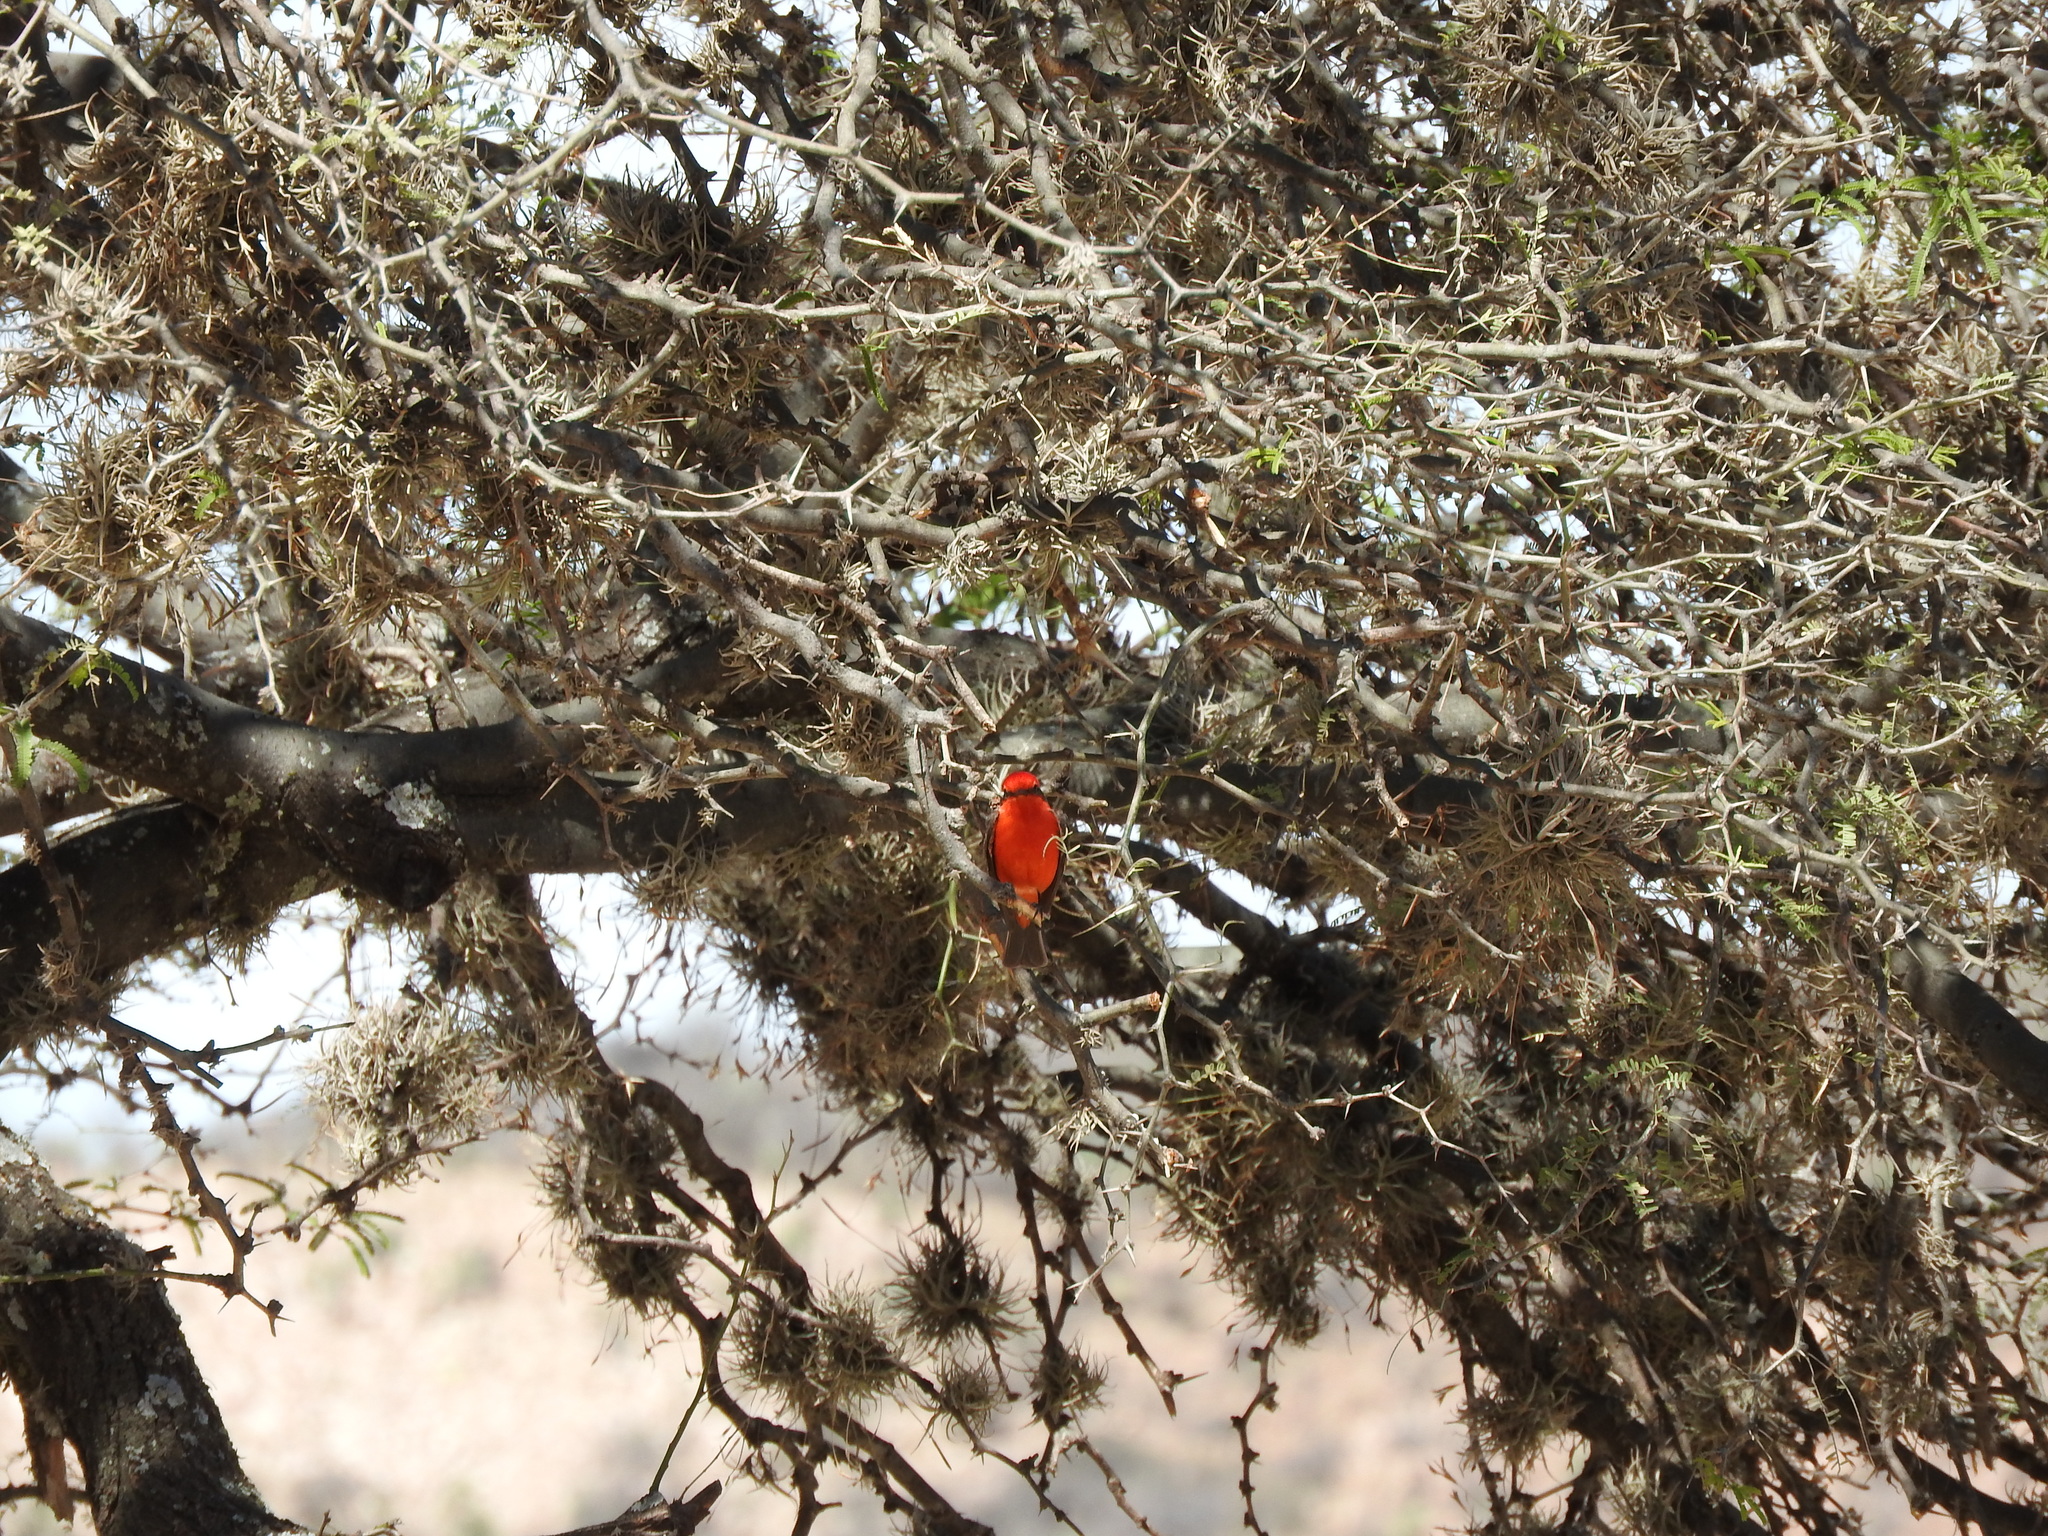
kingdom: Animalia
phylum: Chordata
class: Aves
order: Passeriformes
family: Tyrannidae
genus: Pyrocephalus
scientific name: Pyrocephalus rubinus
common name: Vermilion flycatcher
